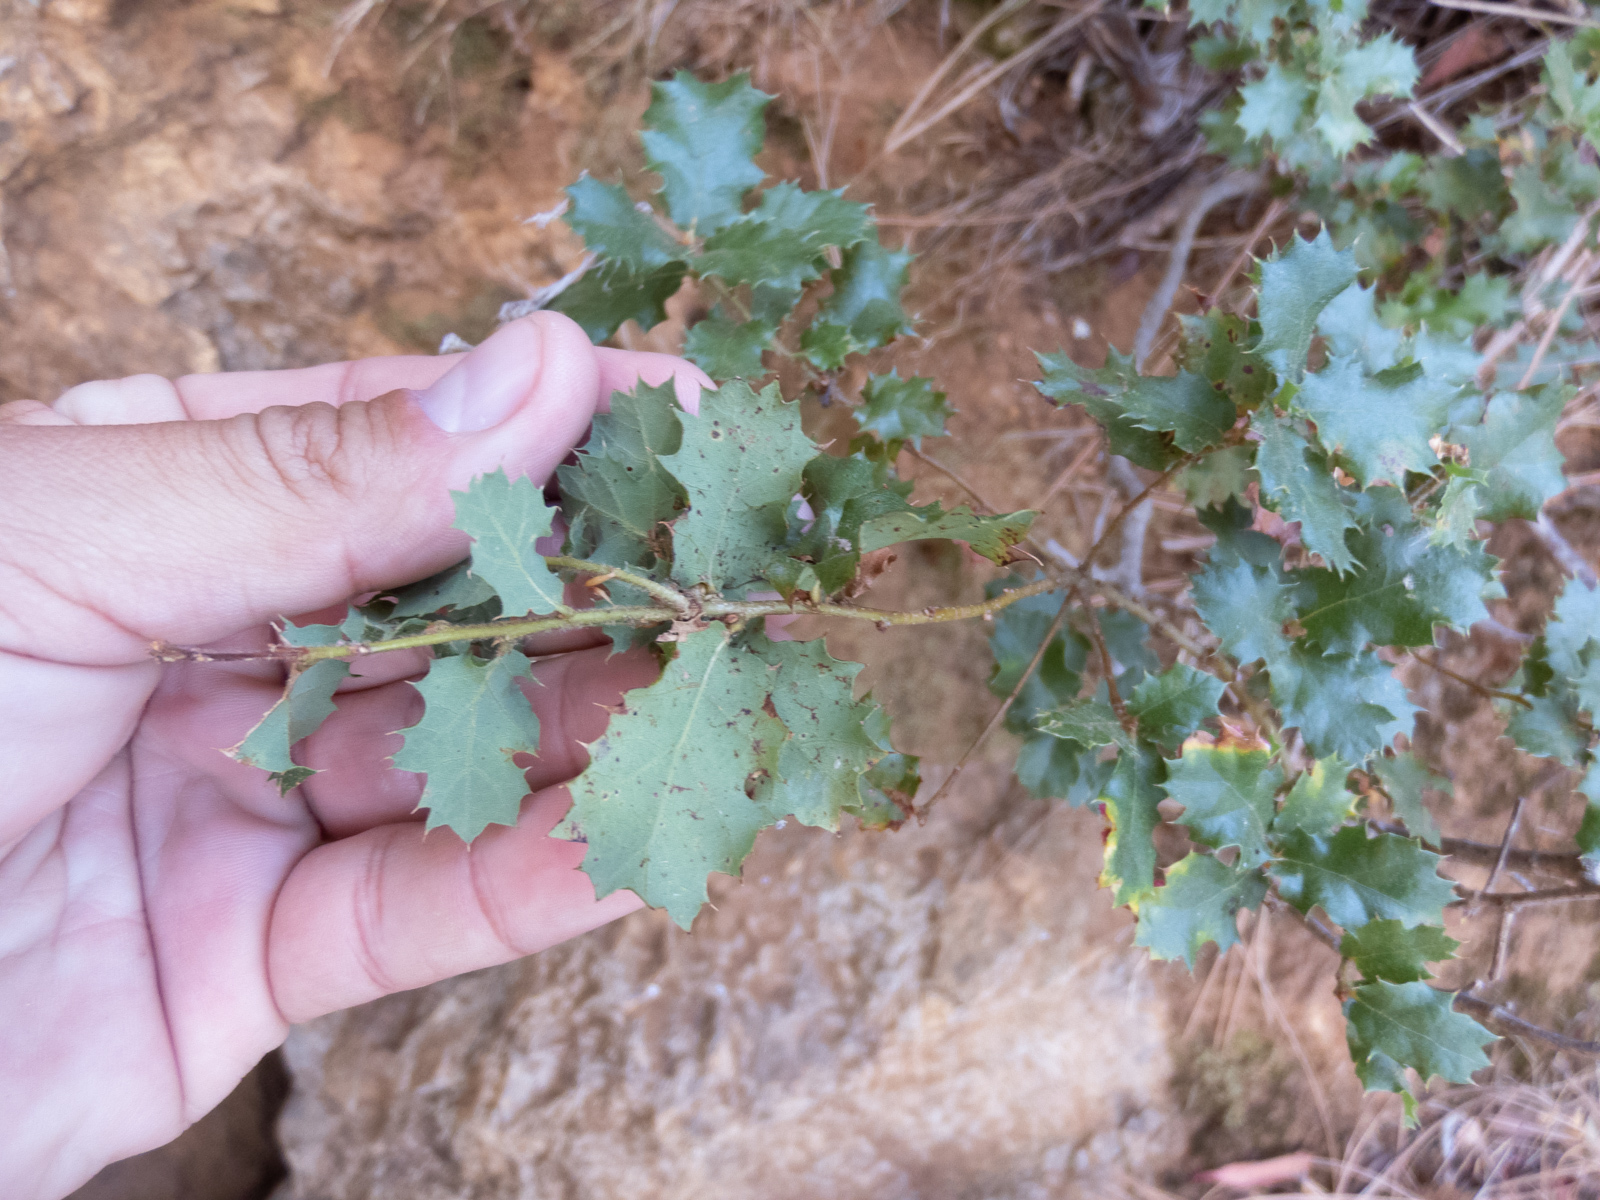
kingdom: Plantae
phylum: Tracheophyta
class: Magnoliopsida
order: Fagales
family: Fagaceae
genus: Quercus
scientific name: Quercus berberidifolia
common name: California scrub oak
